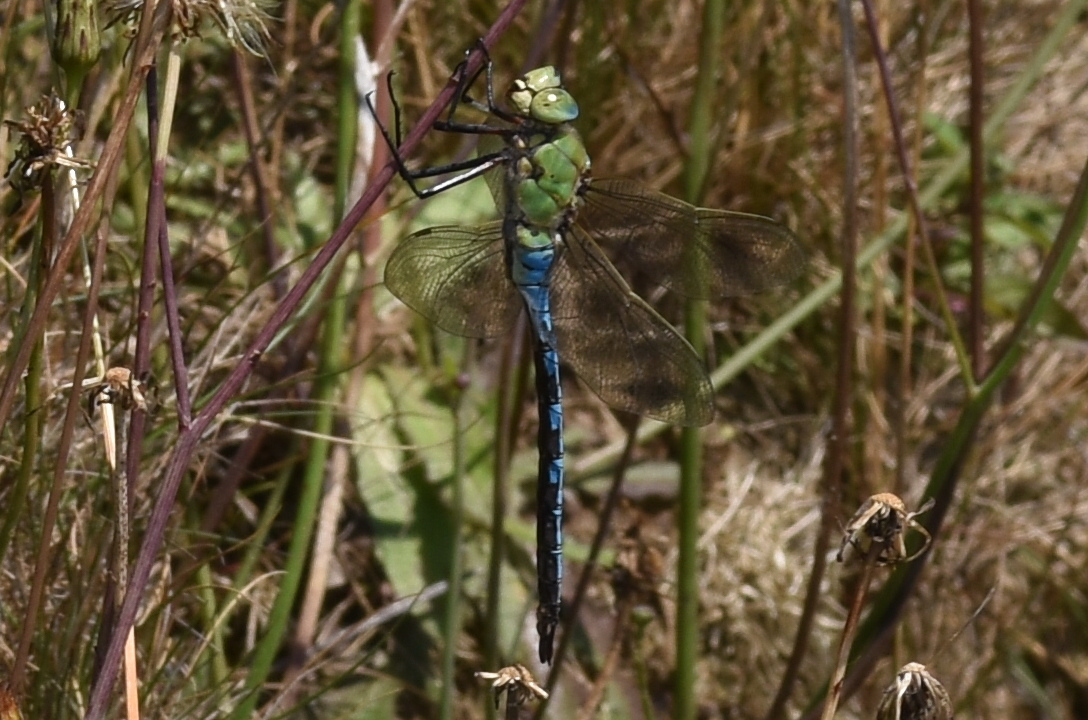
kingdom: Animalia
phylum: Arthropoda
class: Insecta
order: Odonata
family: Aeshnidae
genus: Anax
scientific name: Anax imperator
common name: Emperor dragonfly
